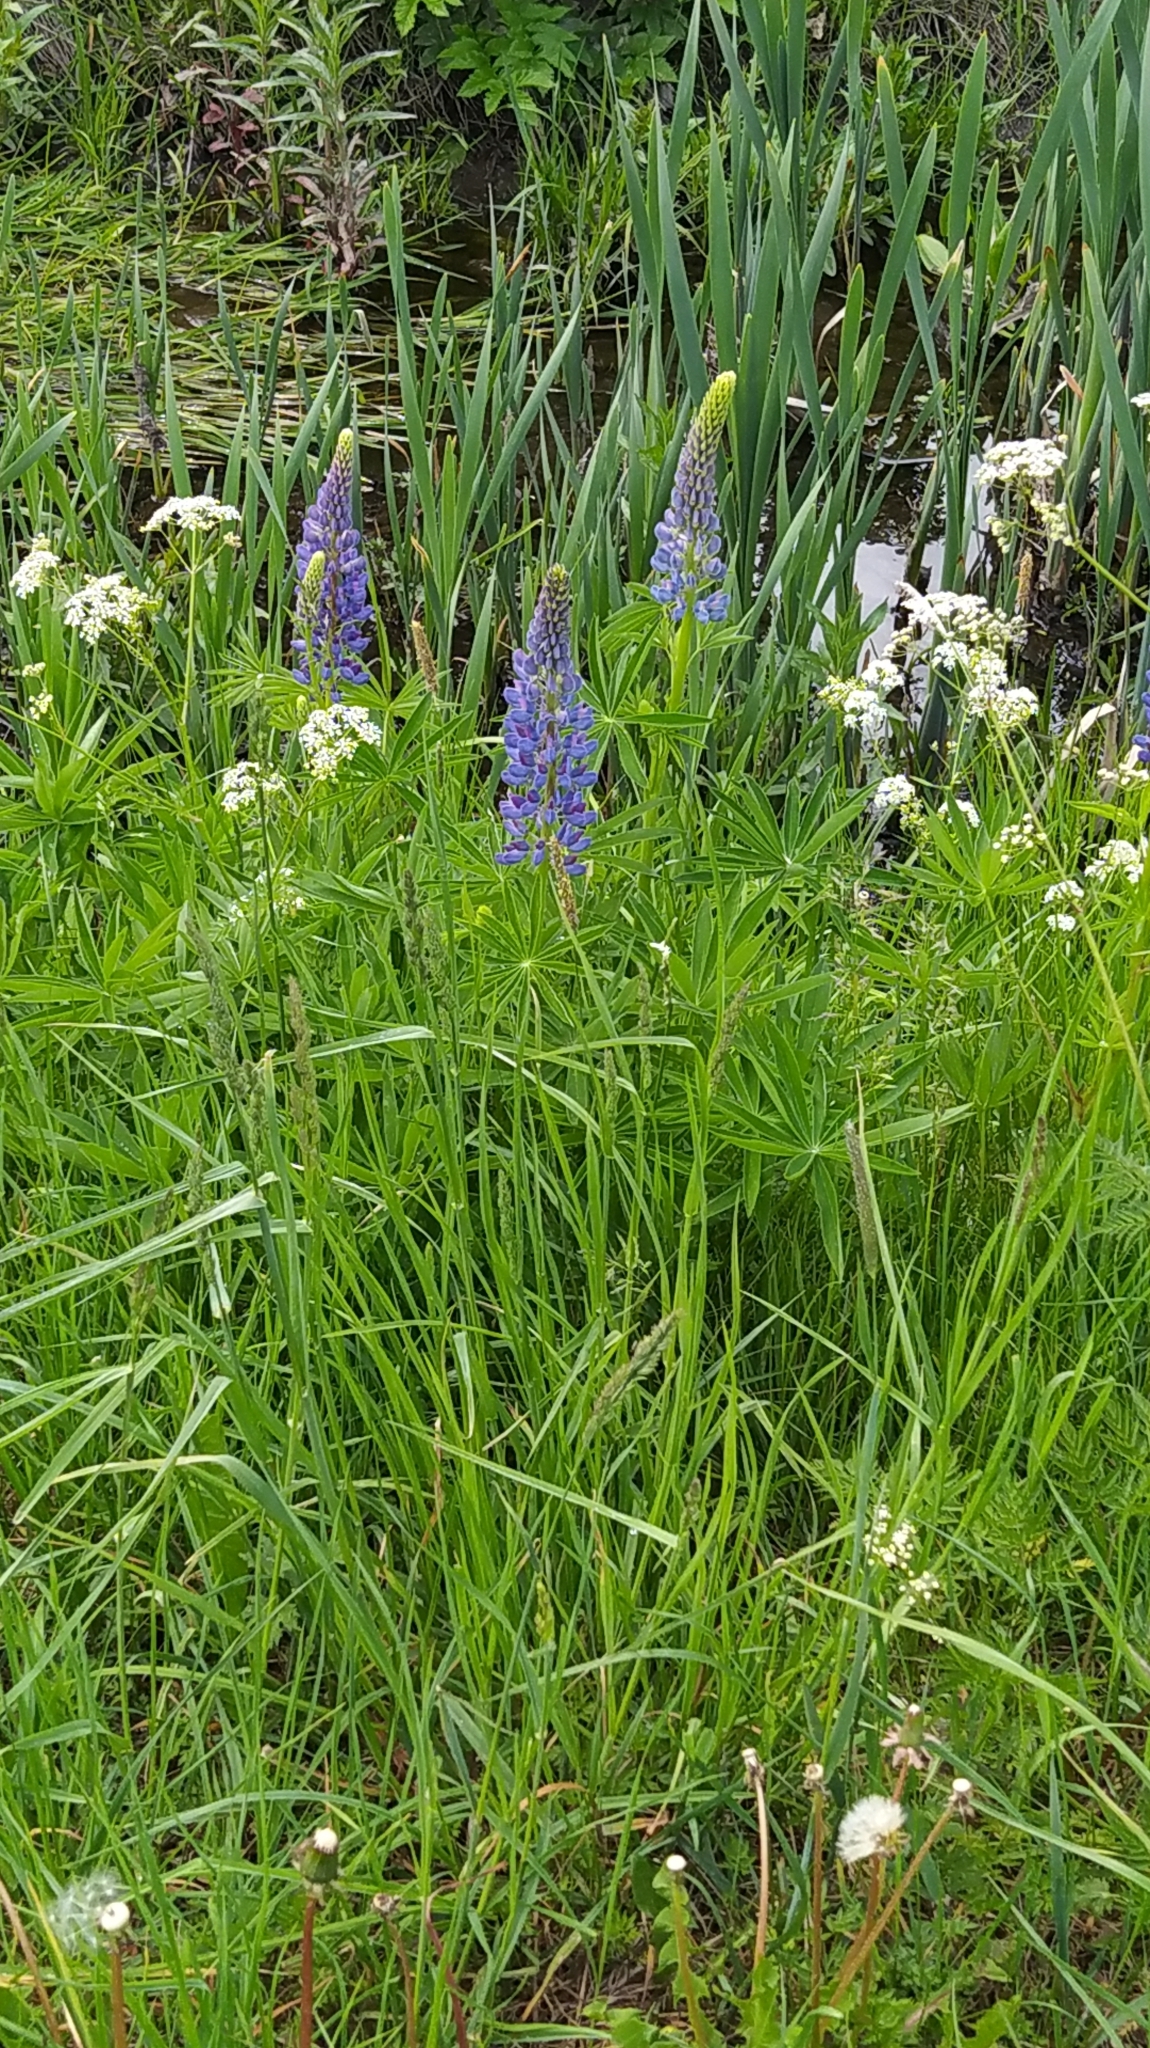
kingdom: Plantae
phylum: Tracheophyta
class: Magnoliopsida
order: Fabales
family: Fabaceae
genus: Lupinus
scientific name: Lupinus polyphyllus
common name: Garden lupin
